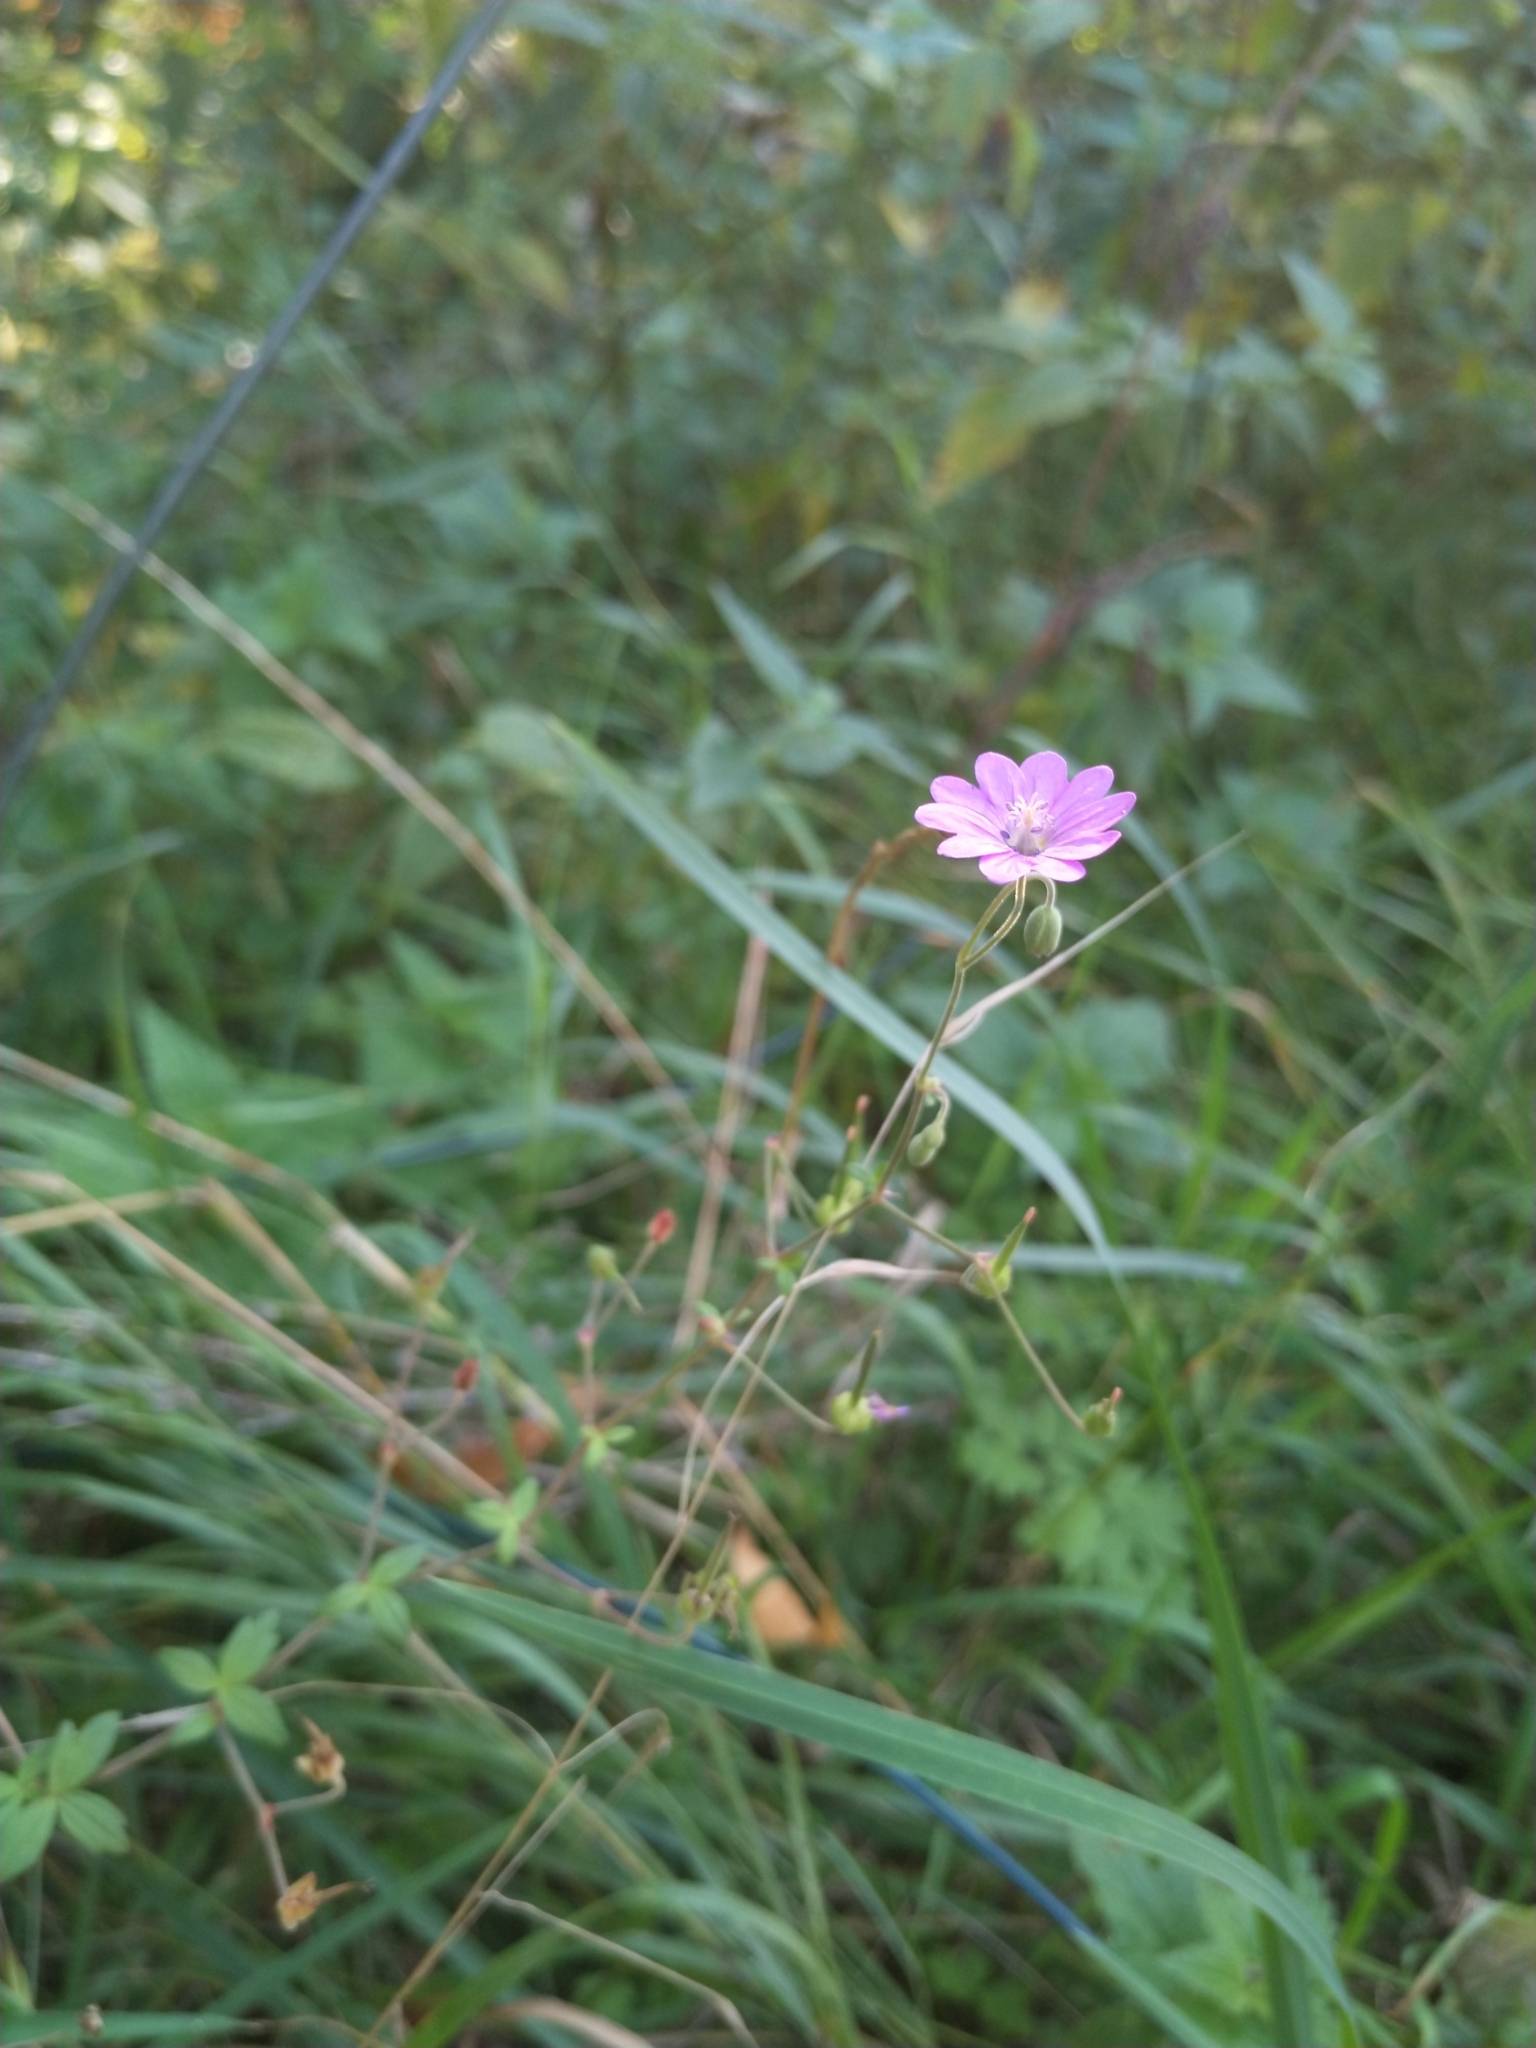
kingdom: Plantae
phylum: Tracheophyta
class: Magnoliopsida
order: Geraniales
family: Geraniaceae
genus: Geranium
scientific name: Geranium molle
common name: Dove's-foot crane's-bill
